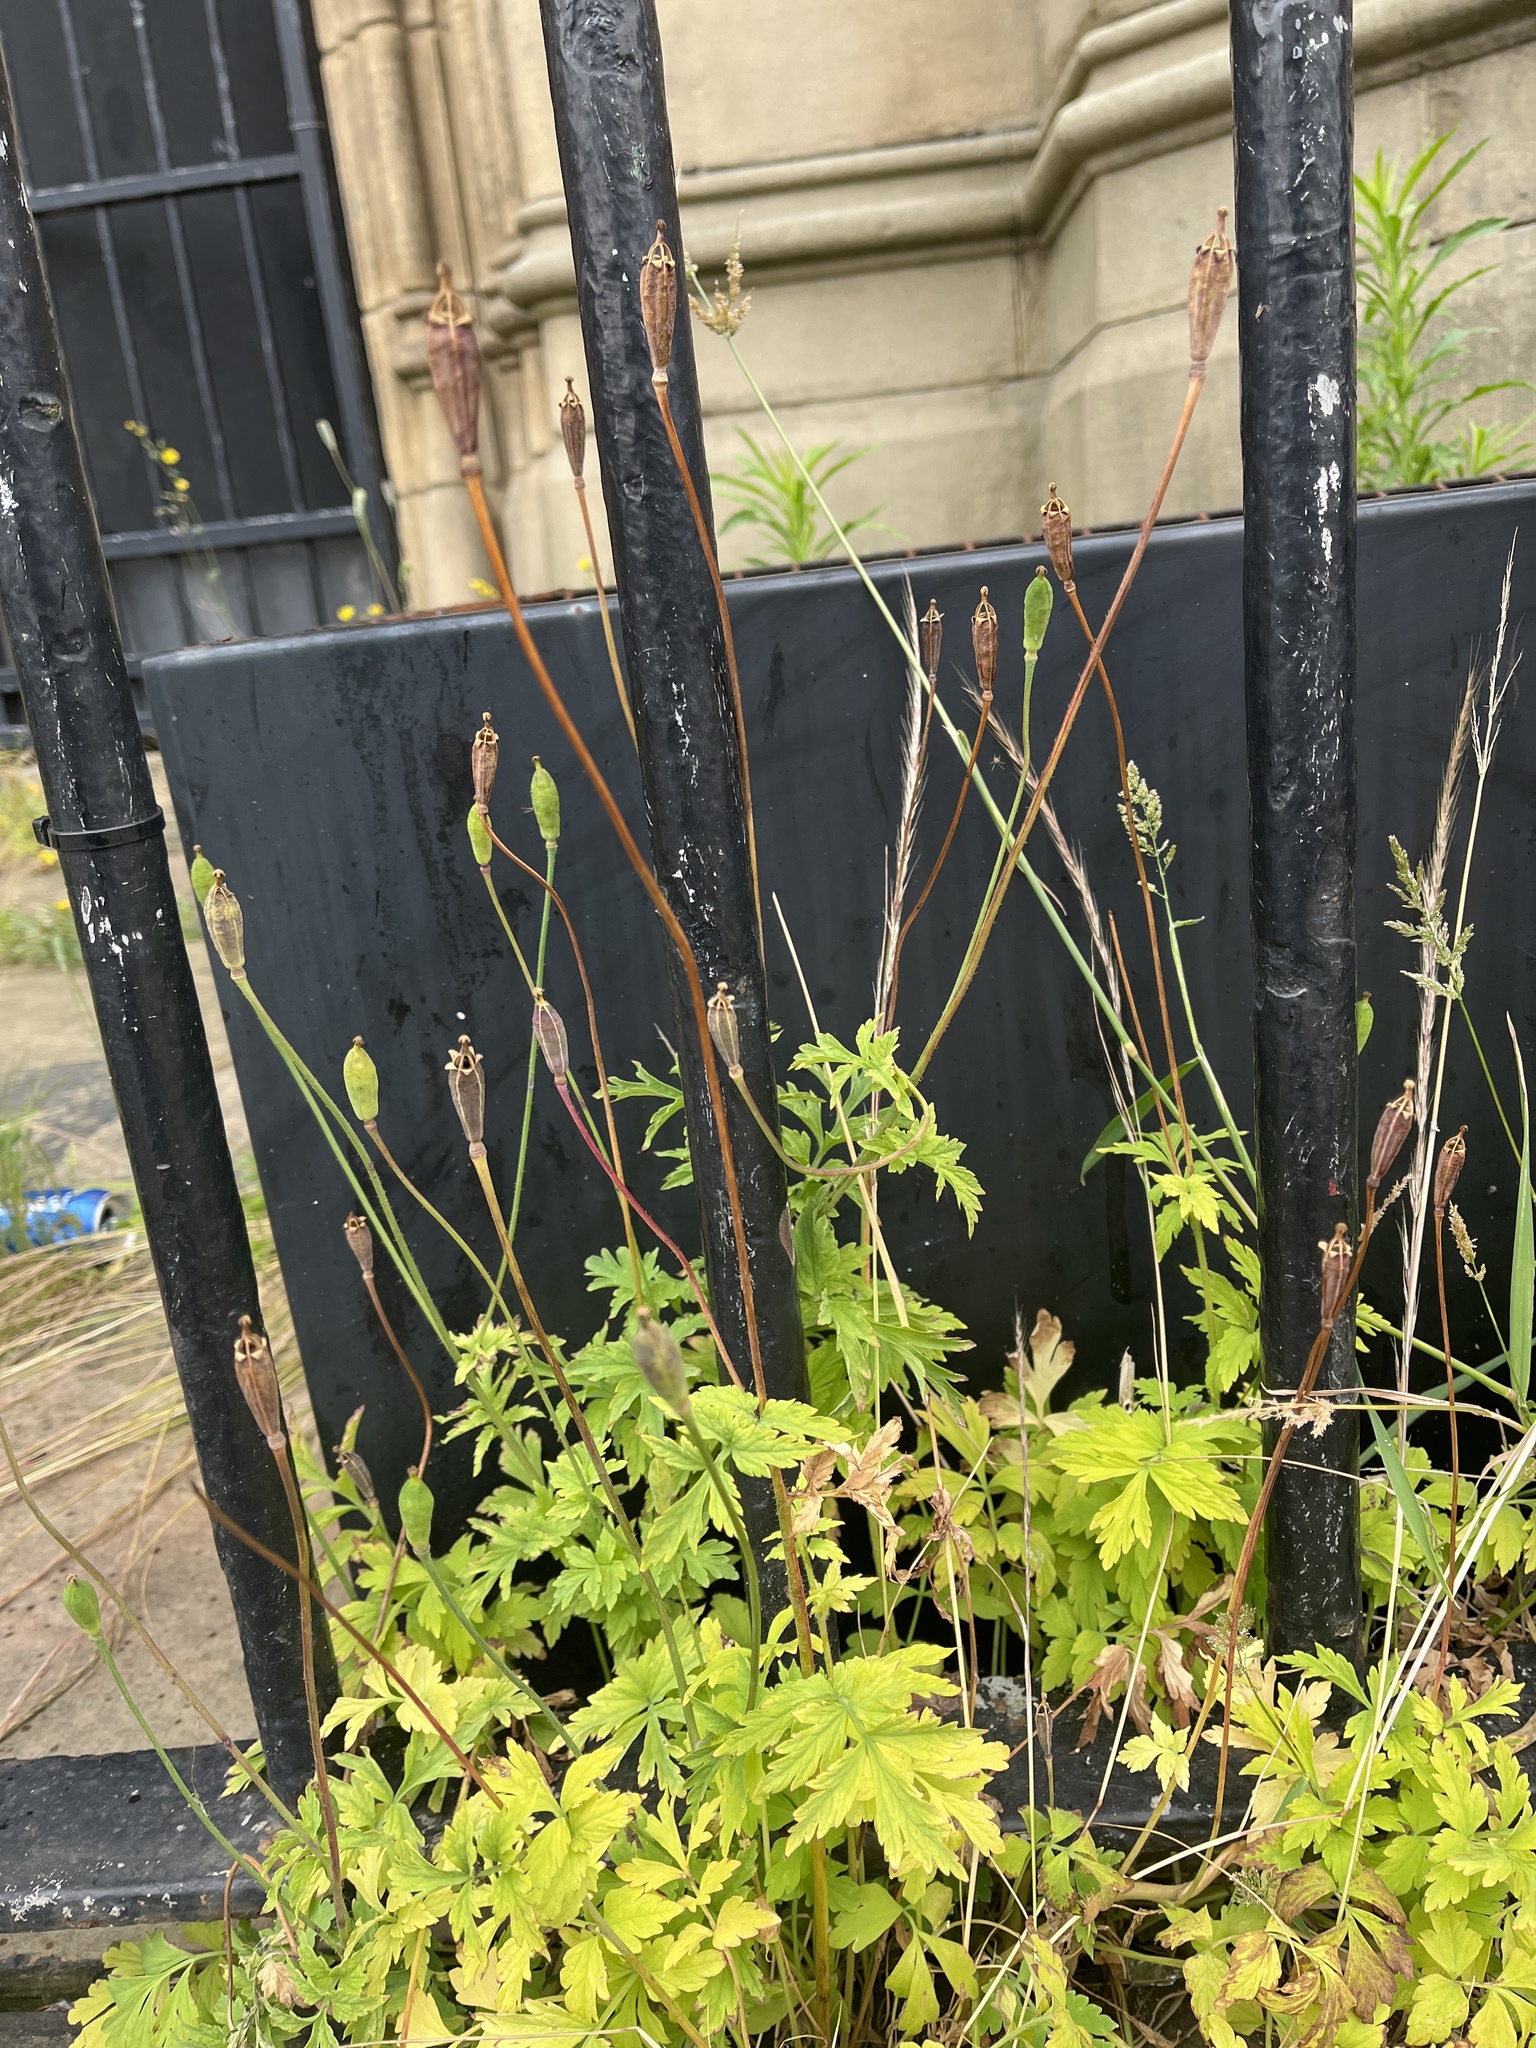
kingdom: Plantae
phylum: Tracheophyta
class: Magnoliopsida
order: Ranunculales
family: Papaveraceae
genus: Papaver
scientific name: Papaver cambricum
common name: Poppy
